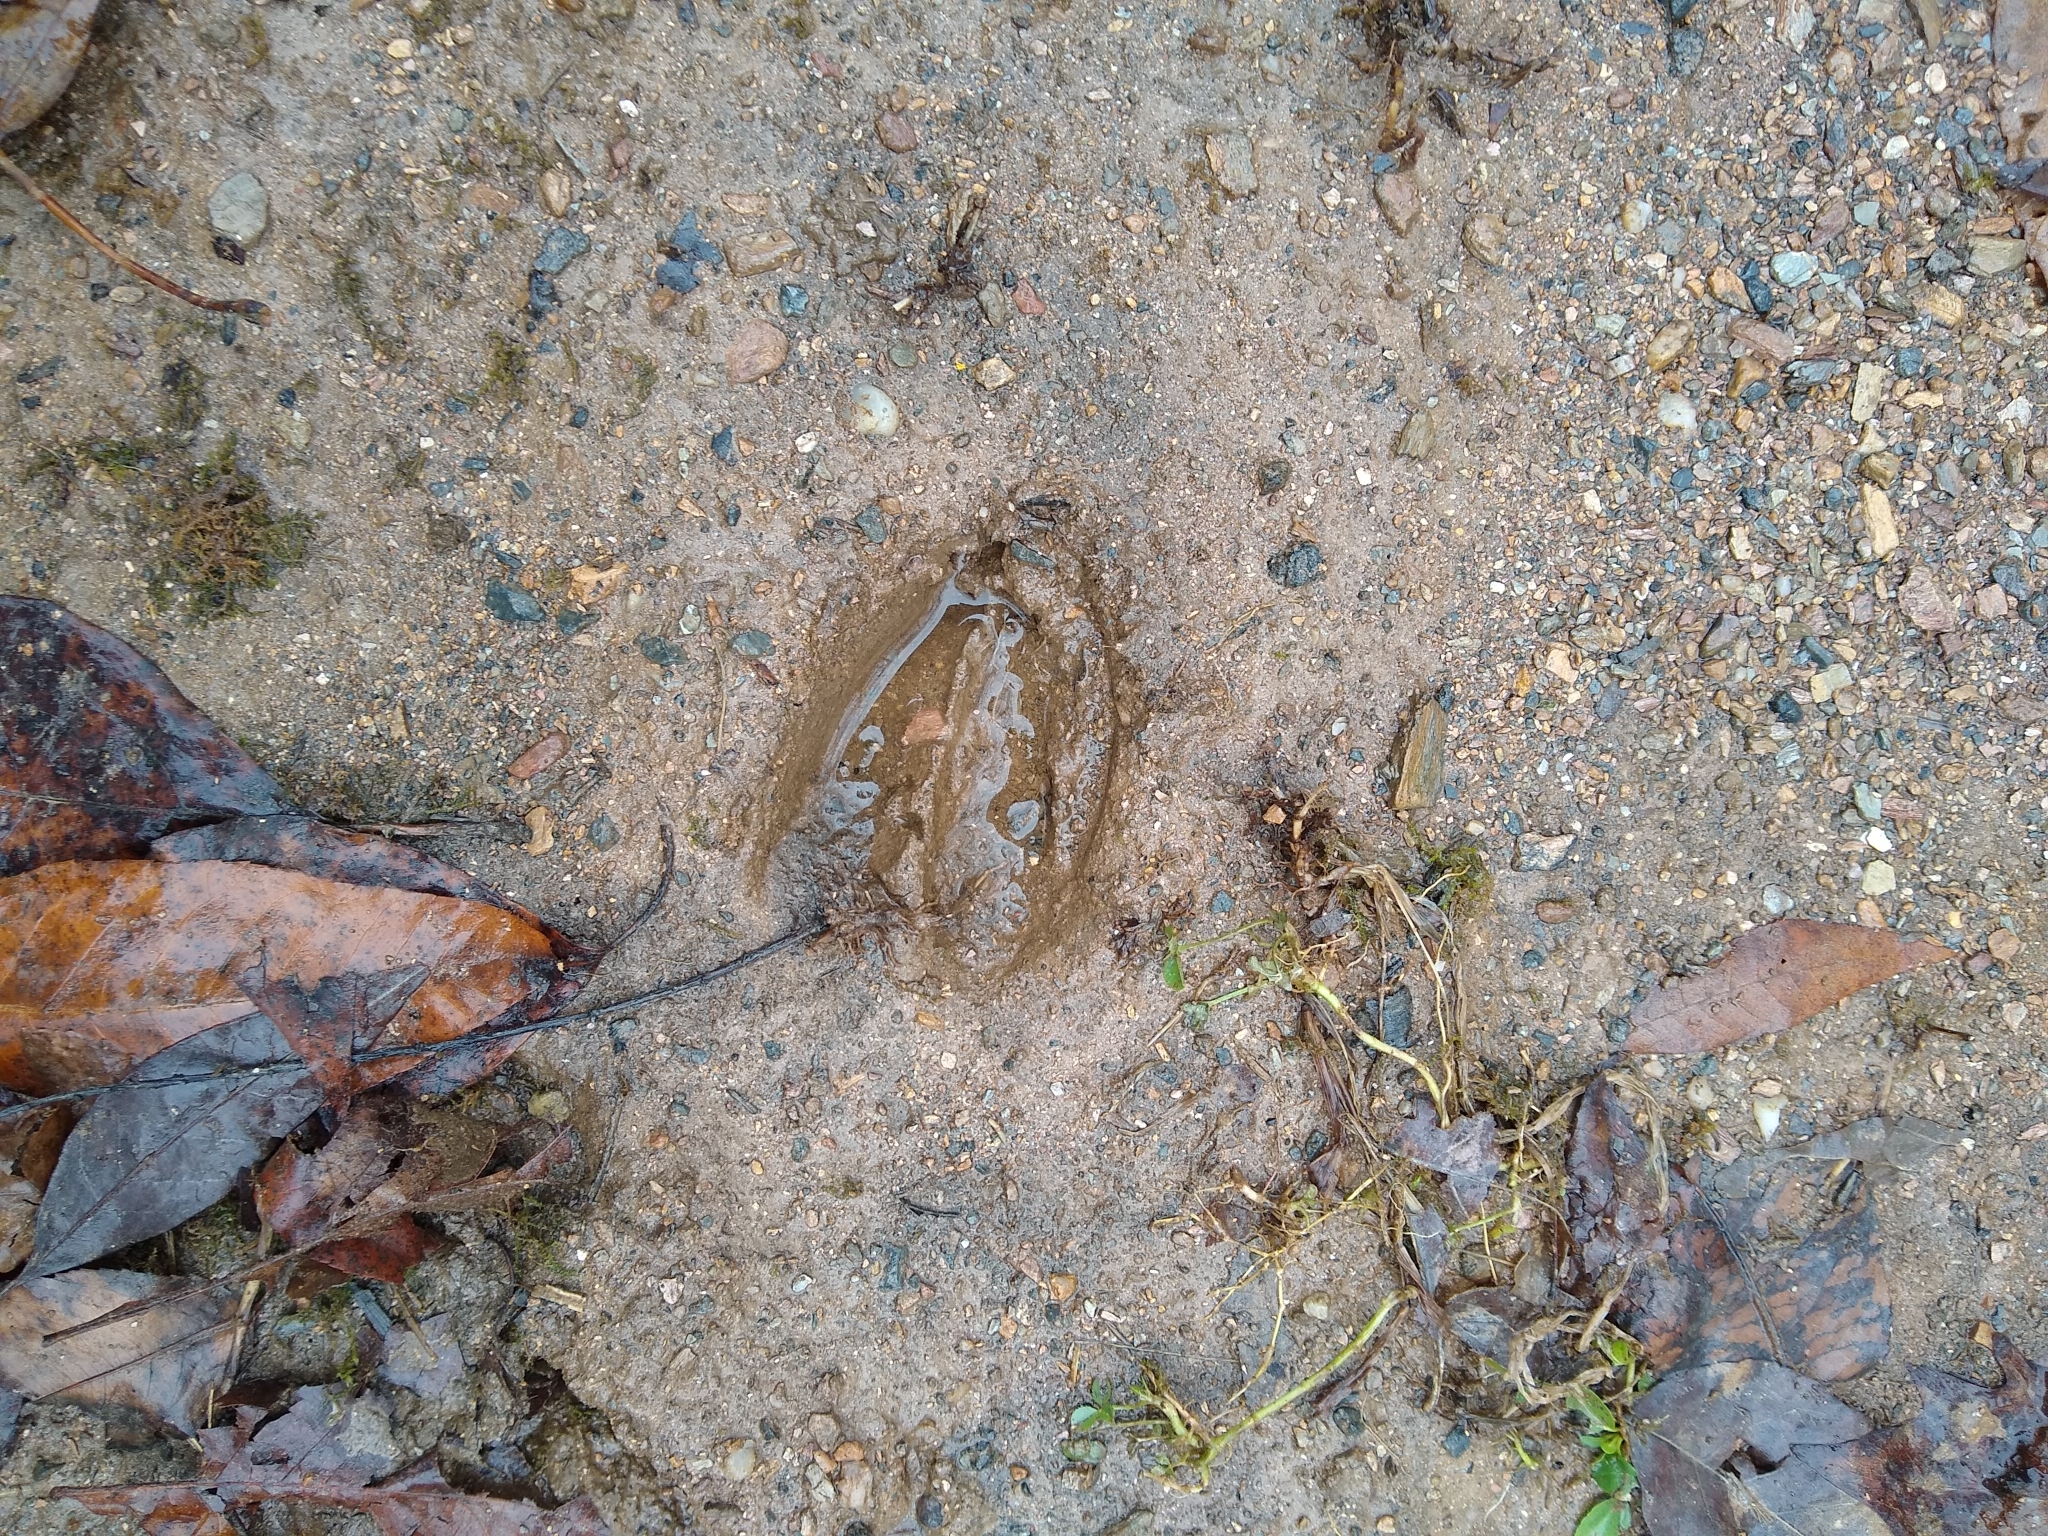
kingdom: Animalia
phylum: Chordata
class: Mammalia
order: Artiodactyla
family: Cervidae
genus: Odocoileus
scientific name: Odocoileus virginianus
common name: White-tailed deer
